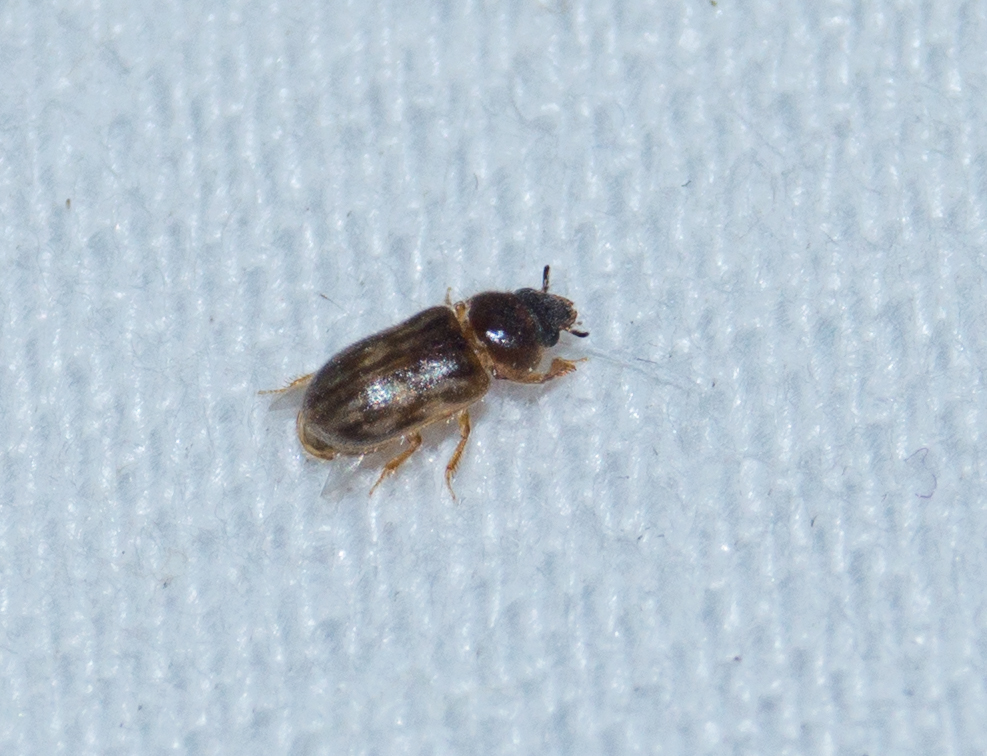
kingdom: Animalia
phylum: Arthropoda
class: Insecta
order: Coleoptera
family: Heteroceridae
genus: Heterocerus
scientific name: Heterocerus fenestratus
